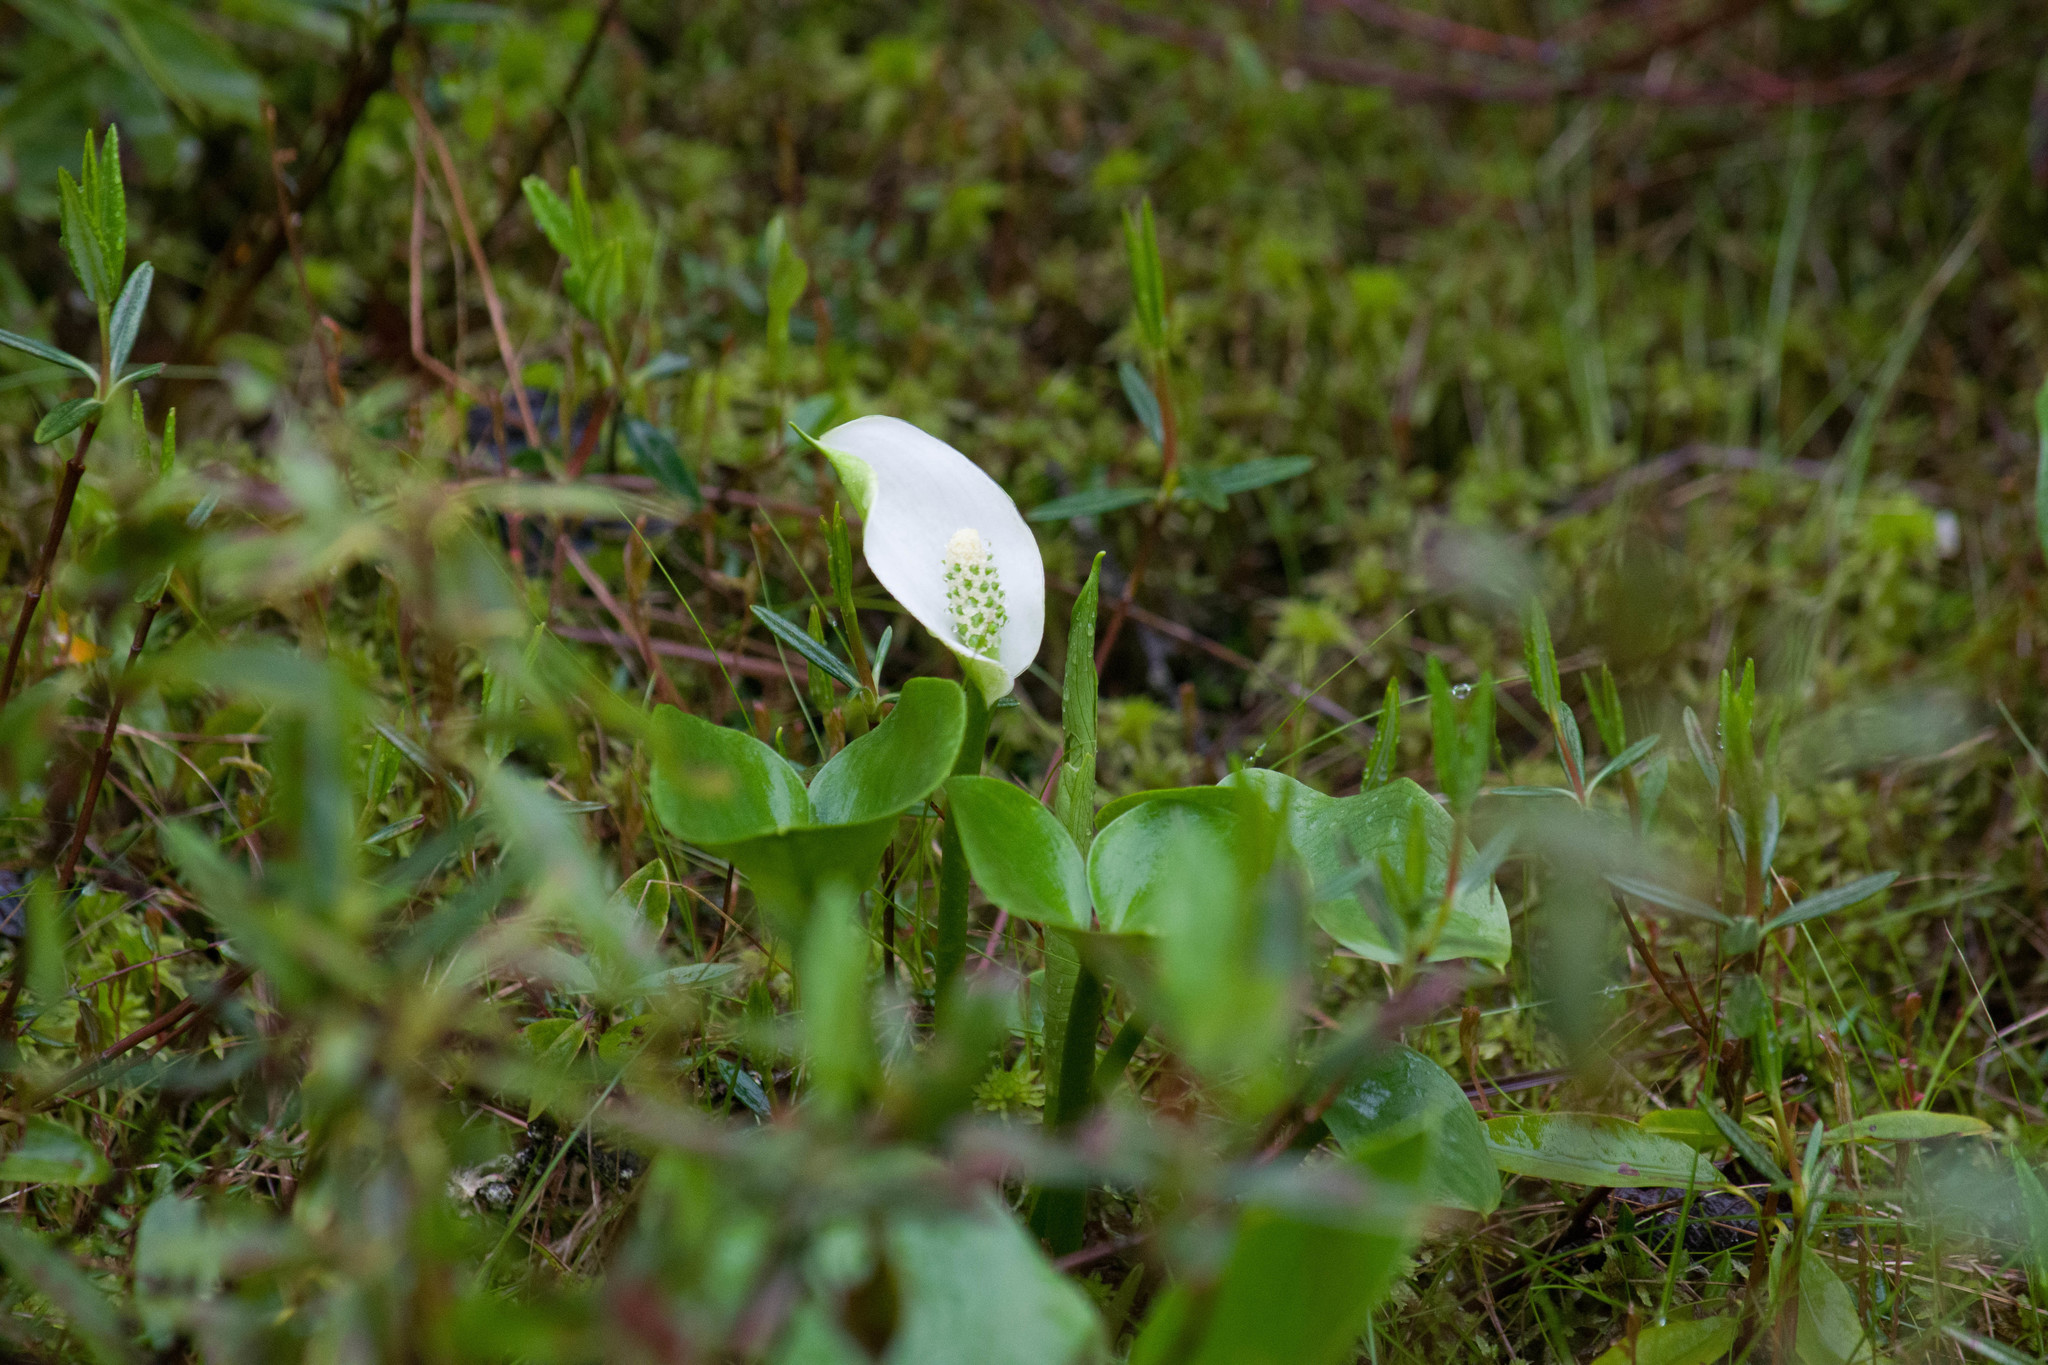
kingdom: Plantae
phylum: Tracheophyta
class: Liliopsida
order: Alismatales
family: Araceae
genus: Calla
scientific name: Calla palustris
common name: Bog arum
